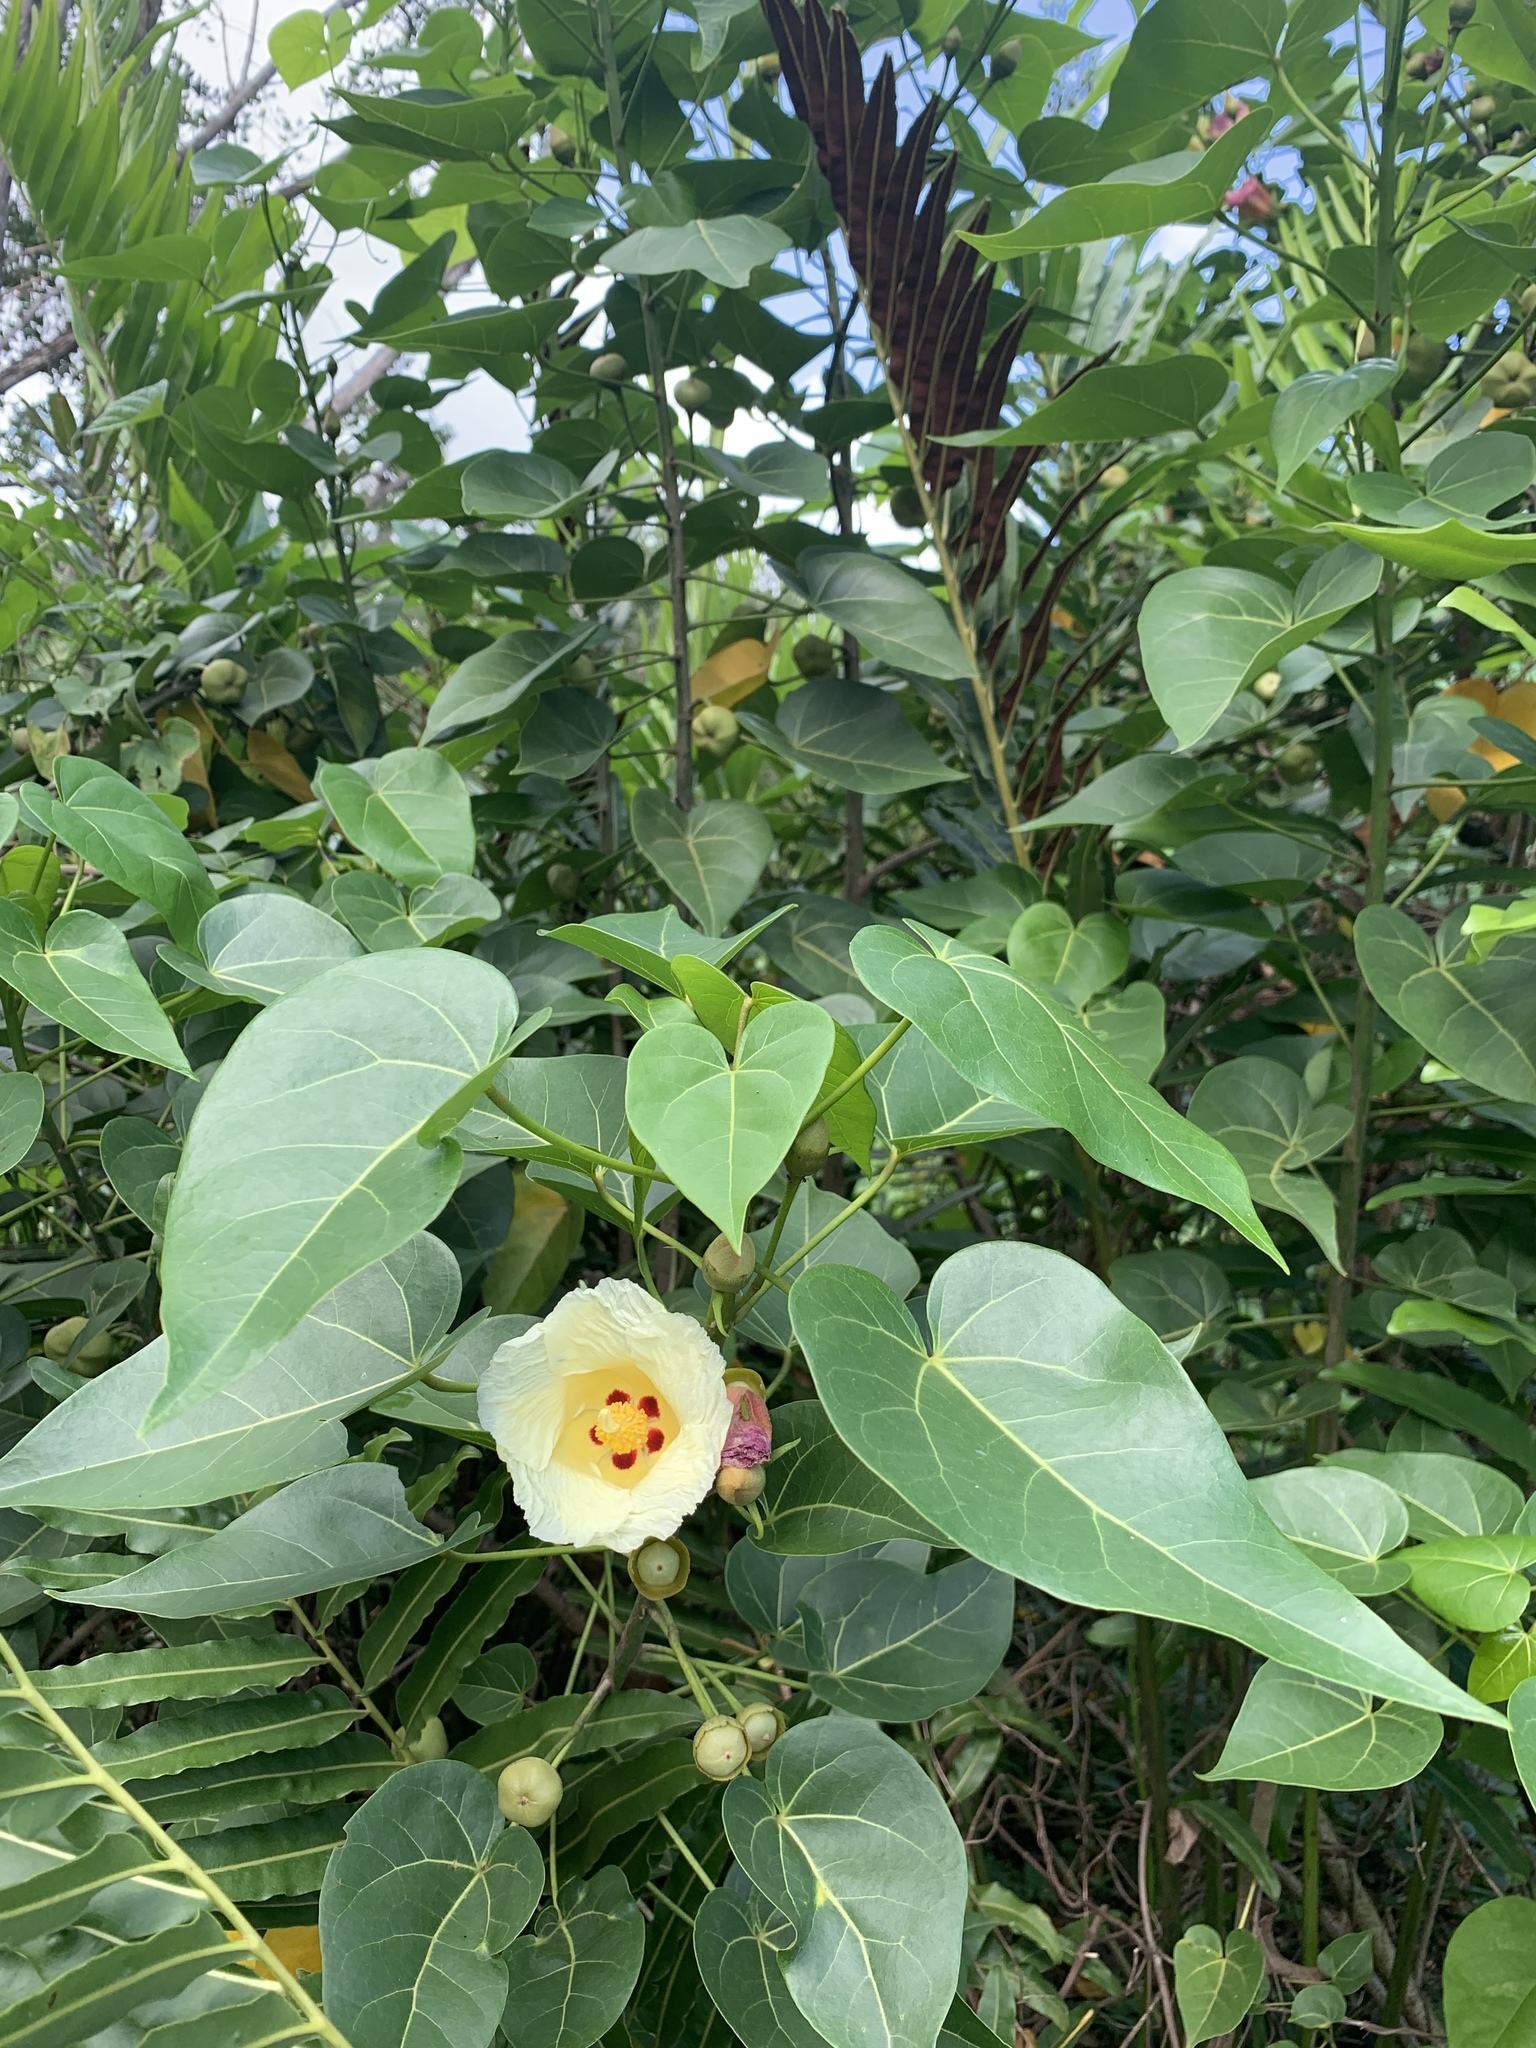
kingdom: Plantae
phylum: Tracheophyta
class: Magnoliopsida
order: Malvales
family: Malvaceae
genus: Thespesia
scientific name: Thespesia populnea
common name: Seaside mahoe
